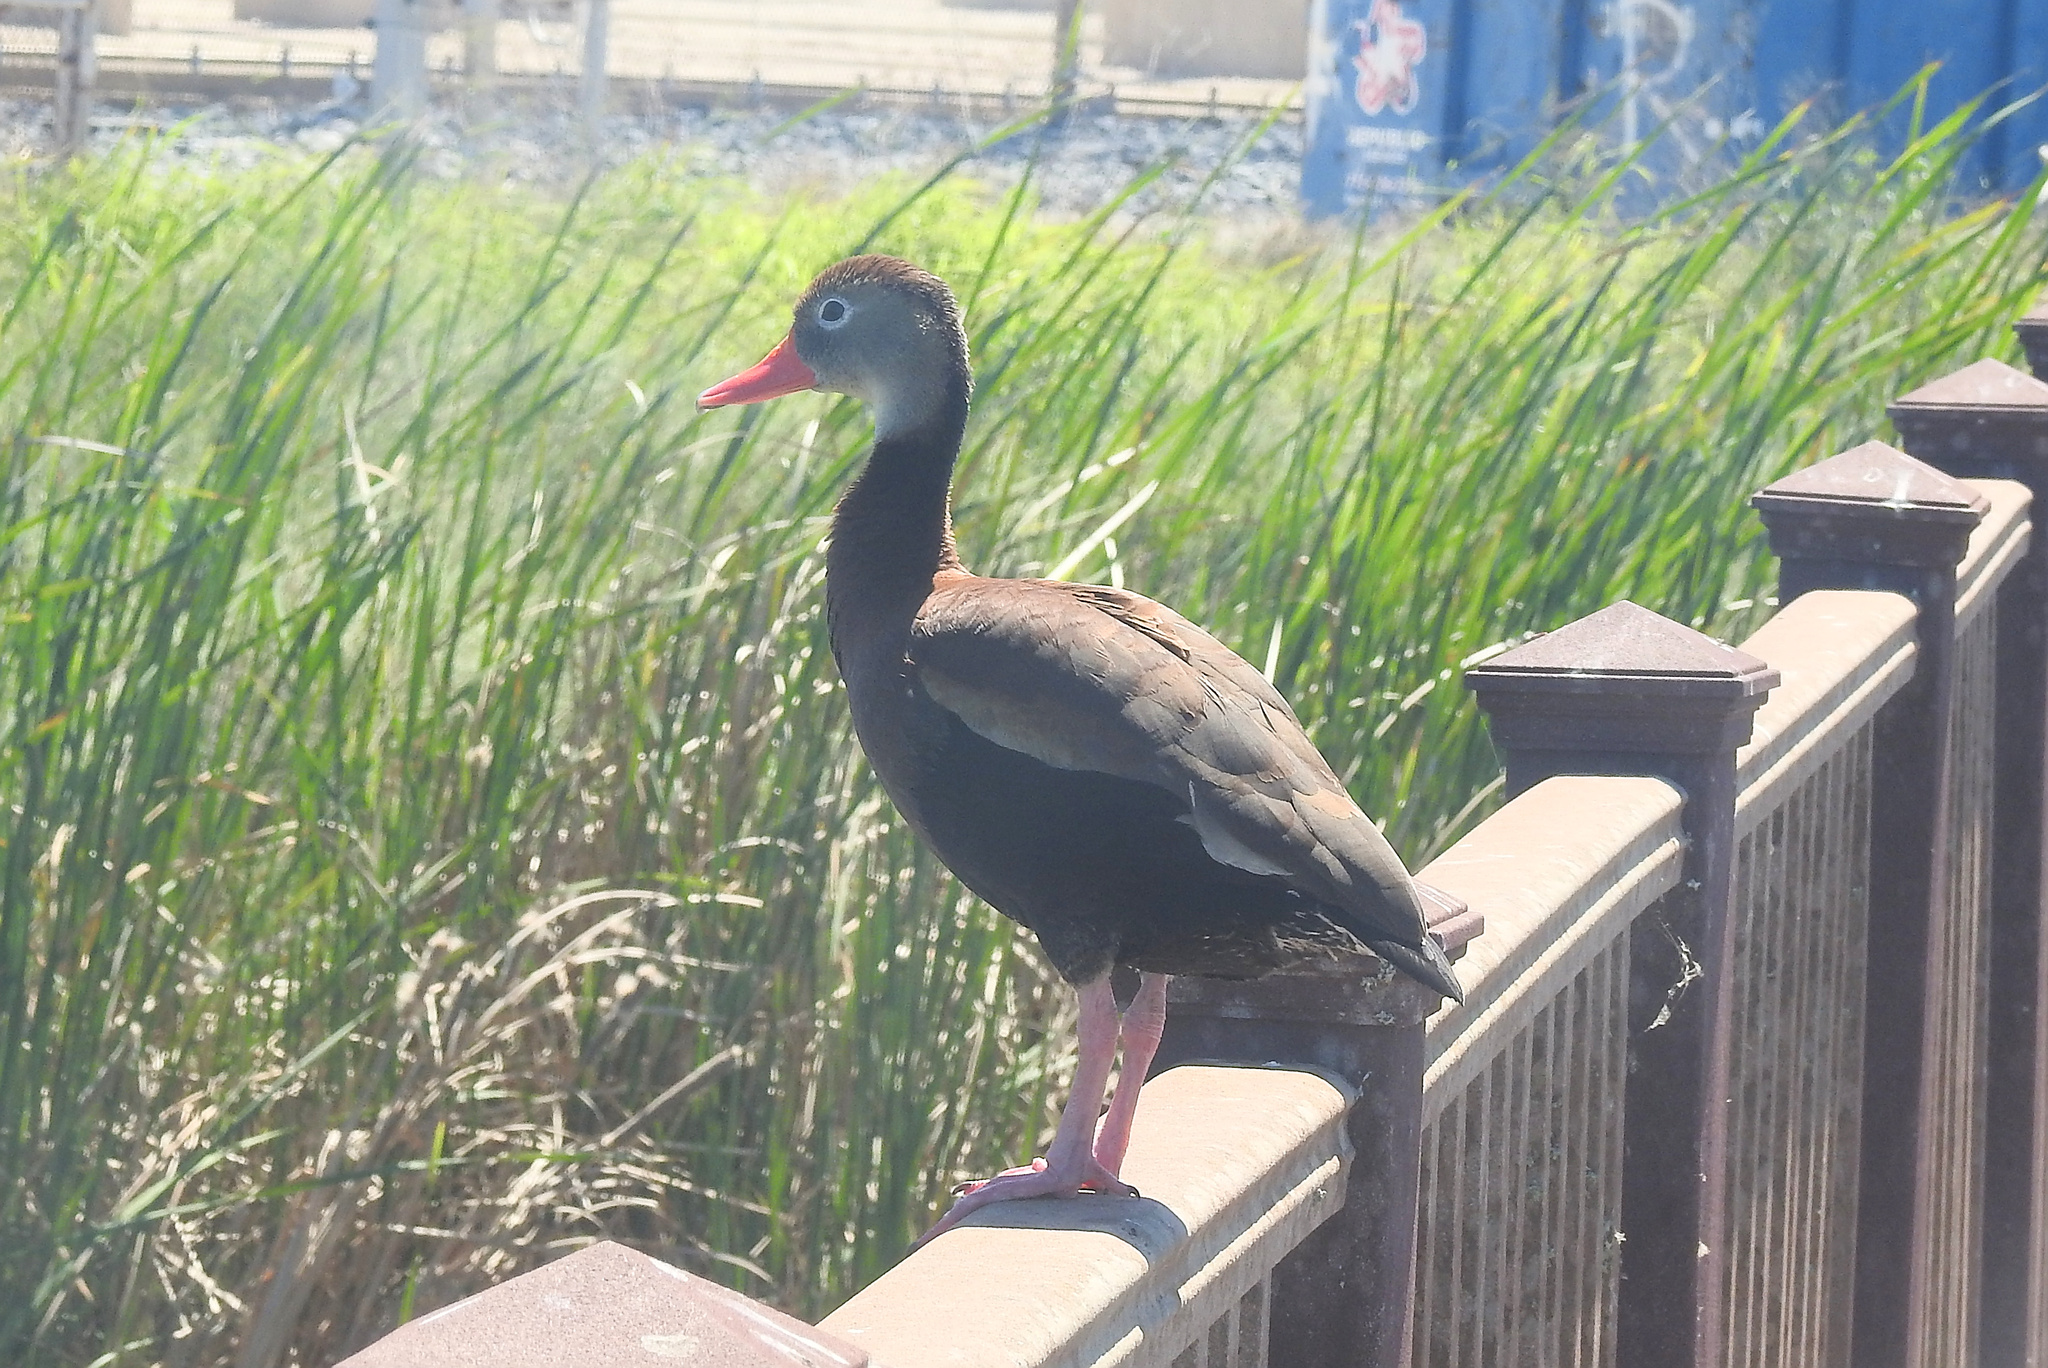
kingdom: Animalia
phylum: Chordata
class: Aves
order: Anseriformes
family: Anatidae
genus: Dendrocygna
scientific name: Dendrocygna autumnalis
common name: Black-bellied whistling duck
